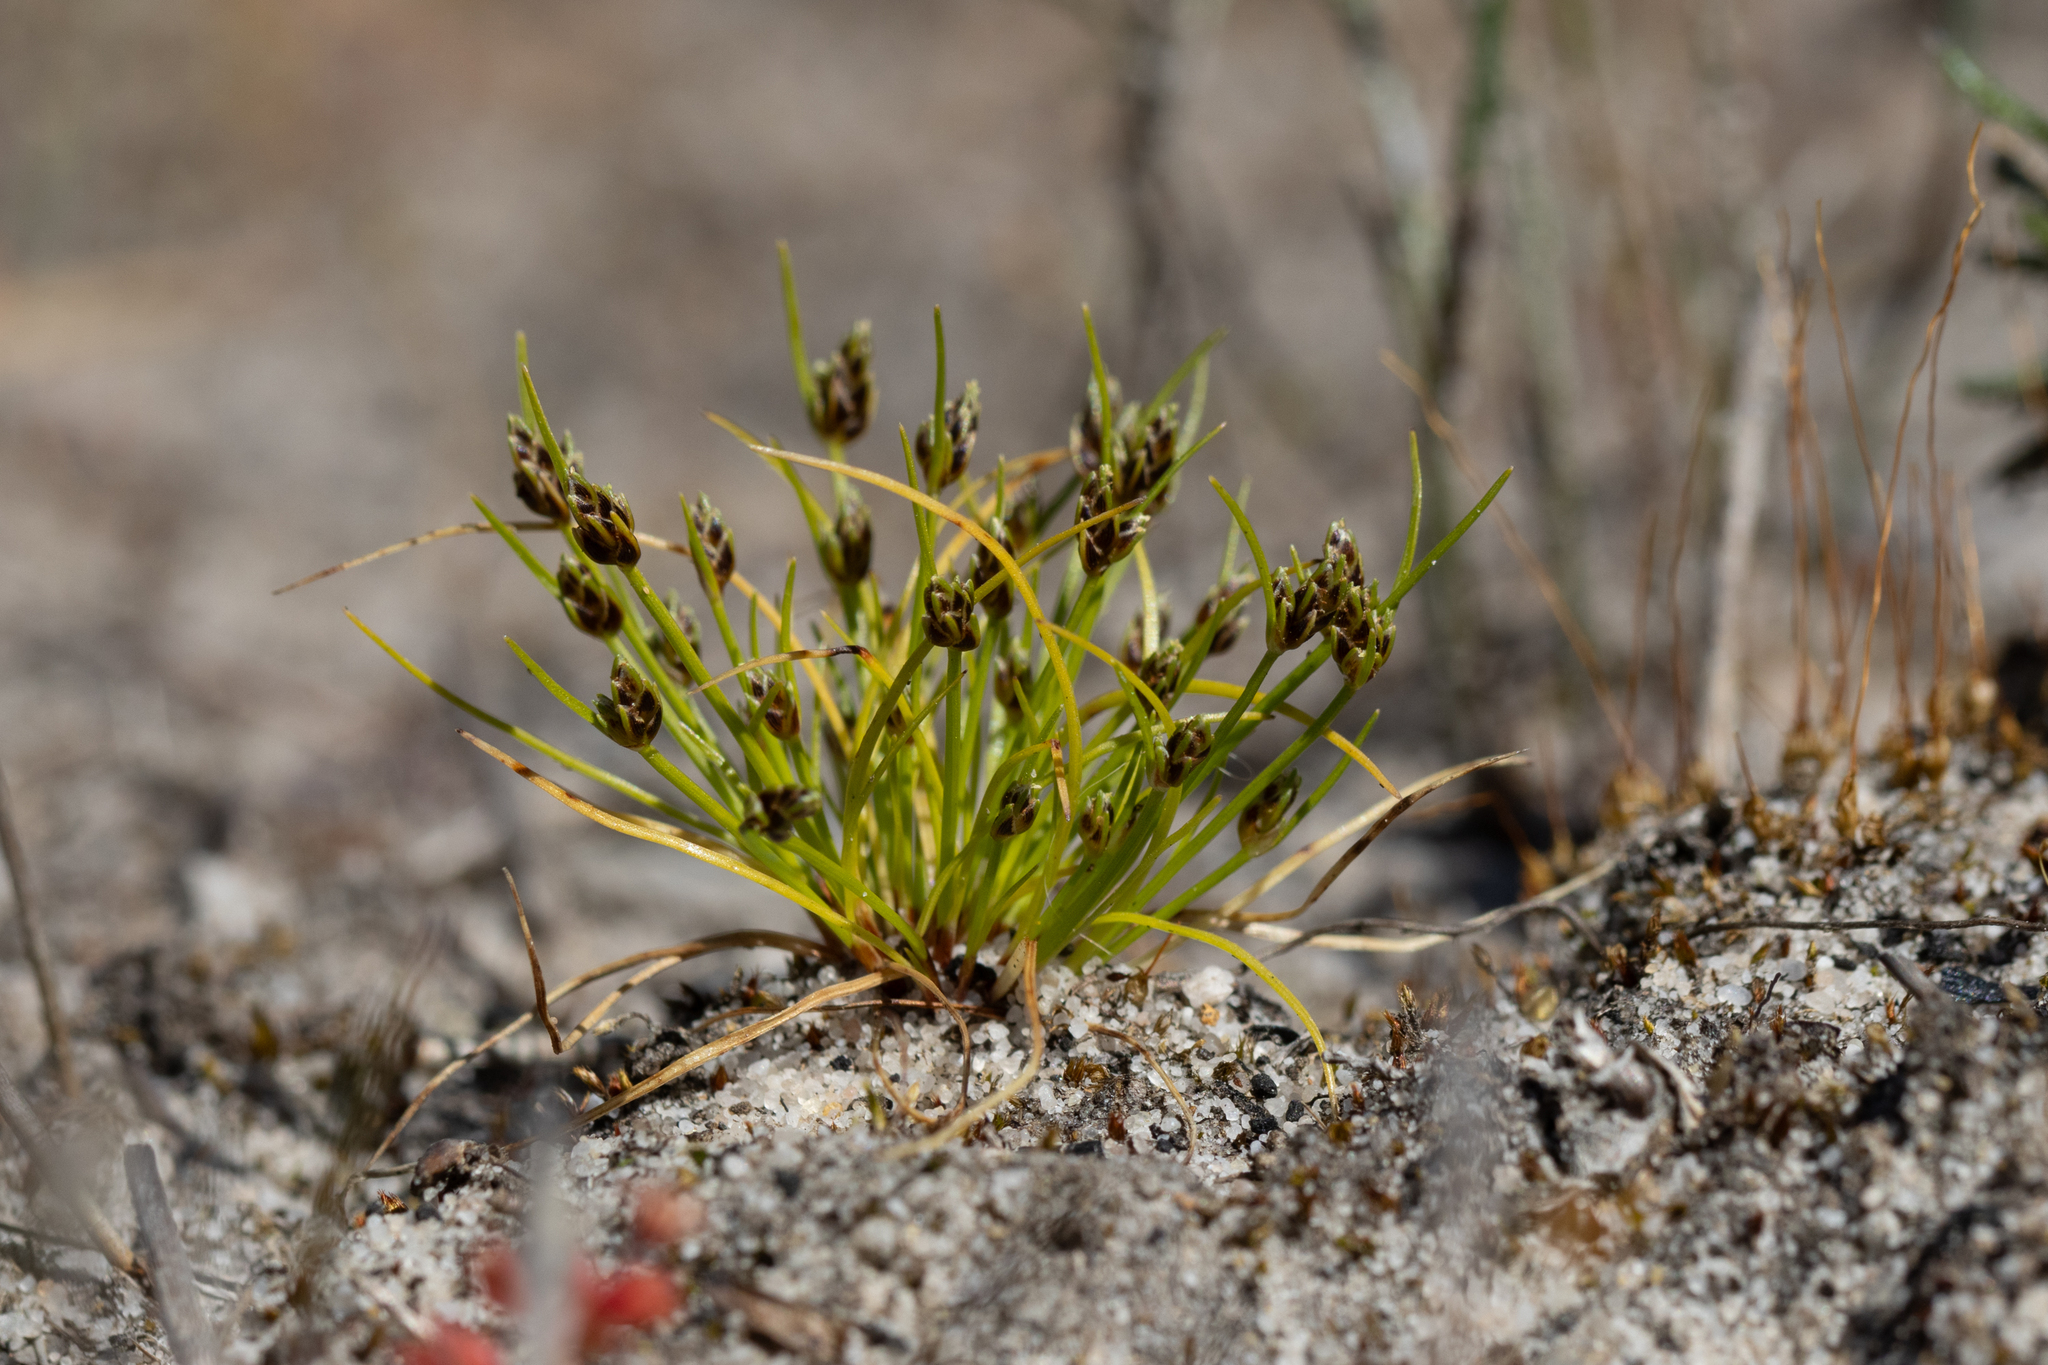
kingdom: Plantae
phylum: Tracheophyta
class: Liliopsida
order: Poales
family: Cyperaceae
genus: Isolepis
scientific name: Isolepis marginata
